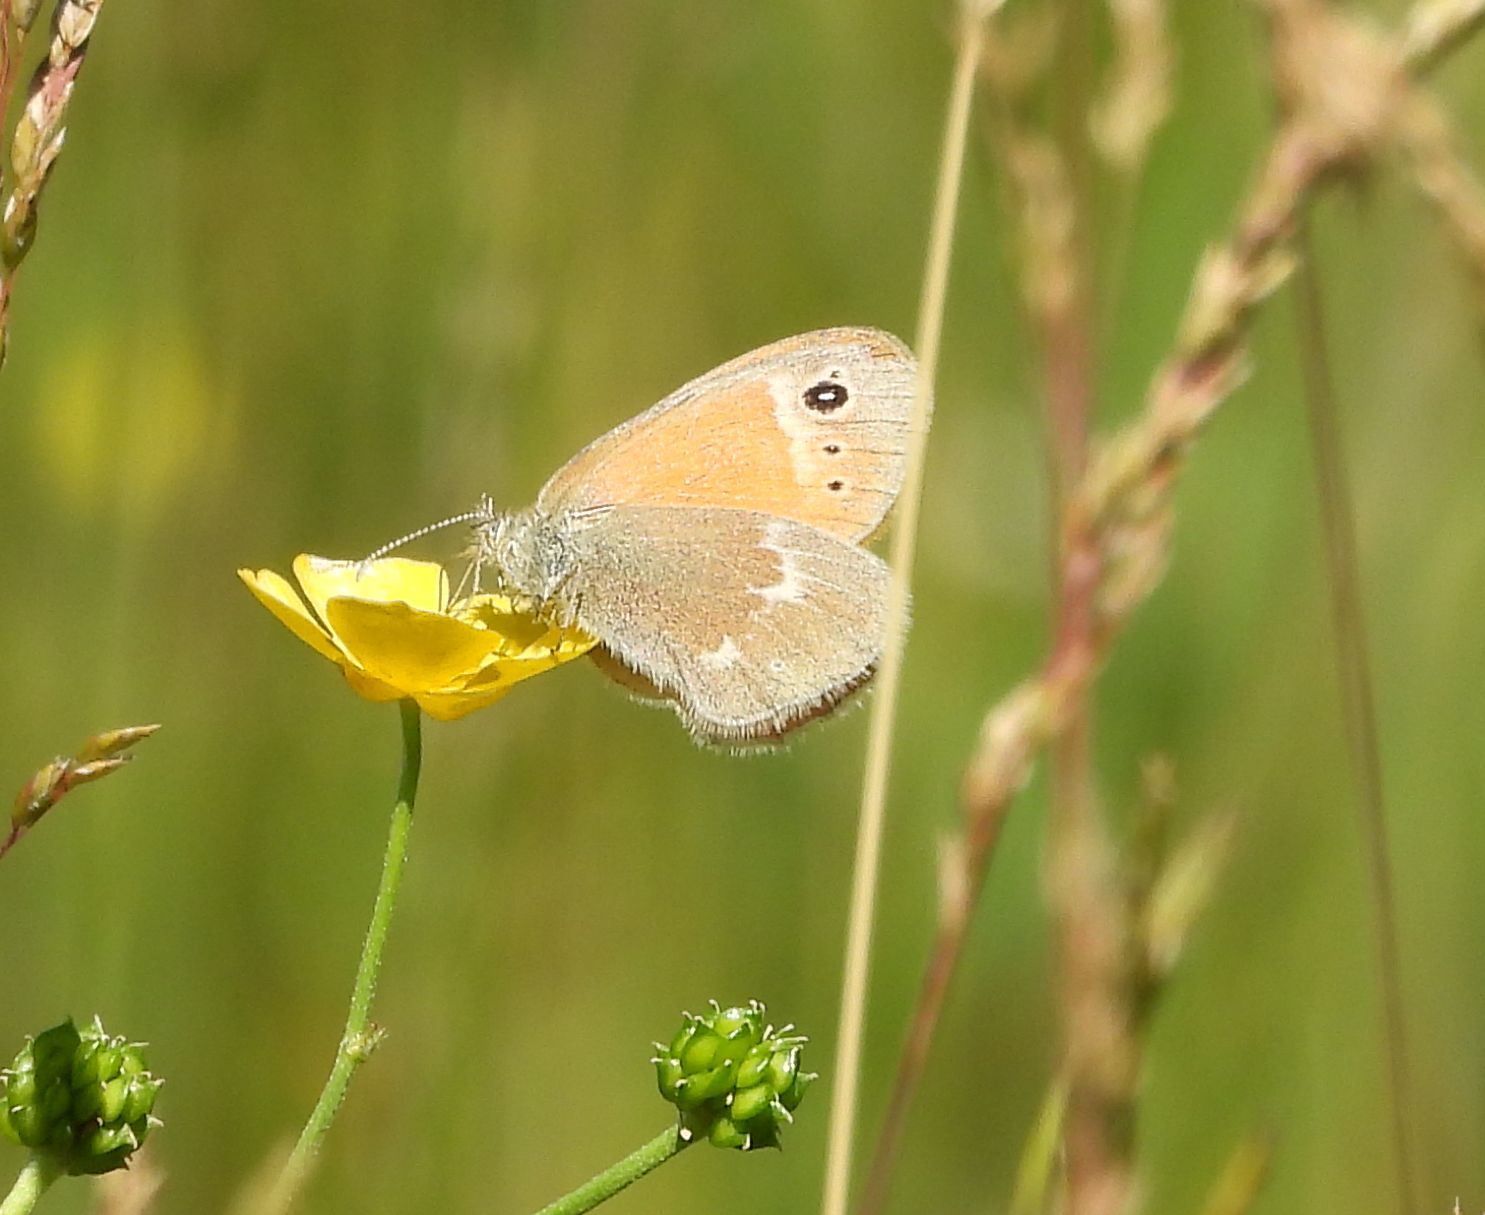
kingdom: Animalia
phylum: Arthropoda
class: Insecta
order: Lepidoptera
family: Nymphalidae
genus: Coenonympha
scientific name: Coenonympha california
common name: Common ringlet
